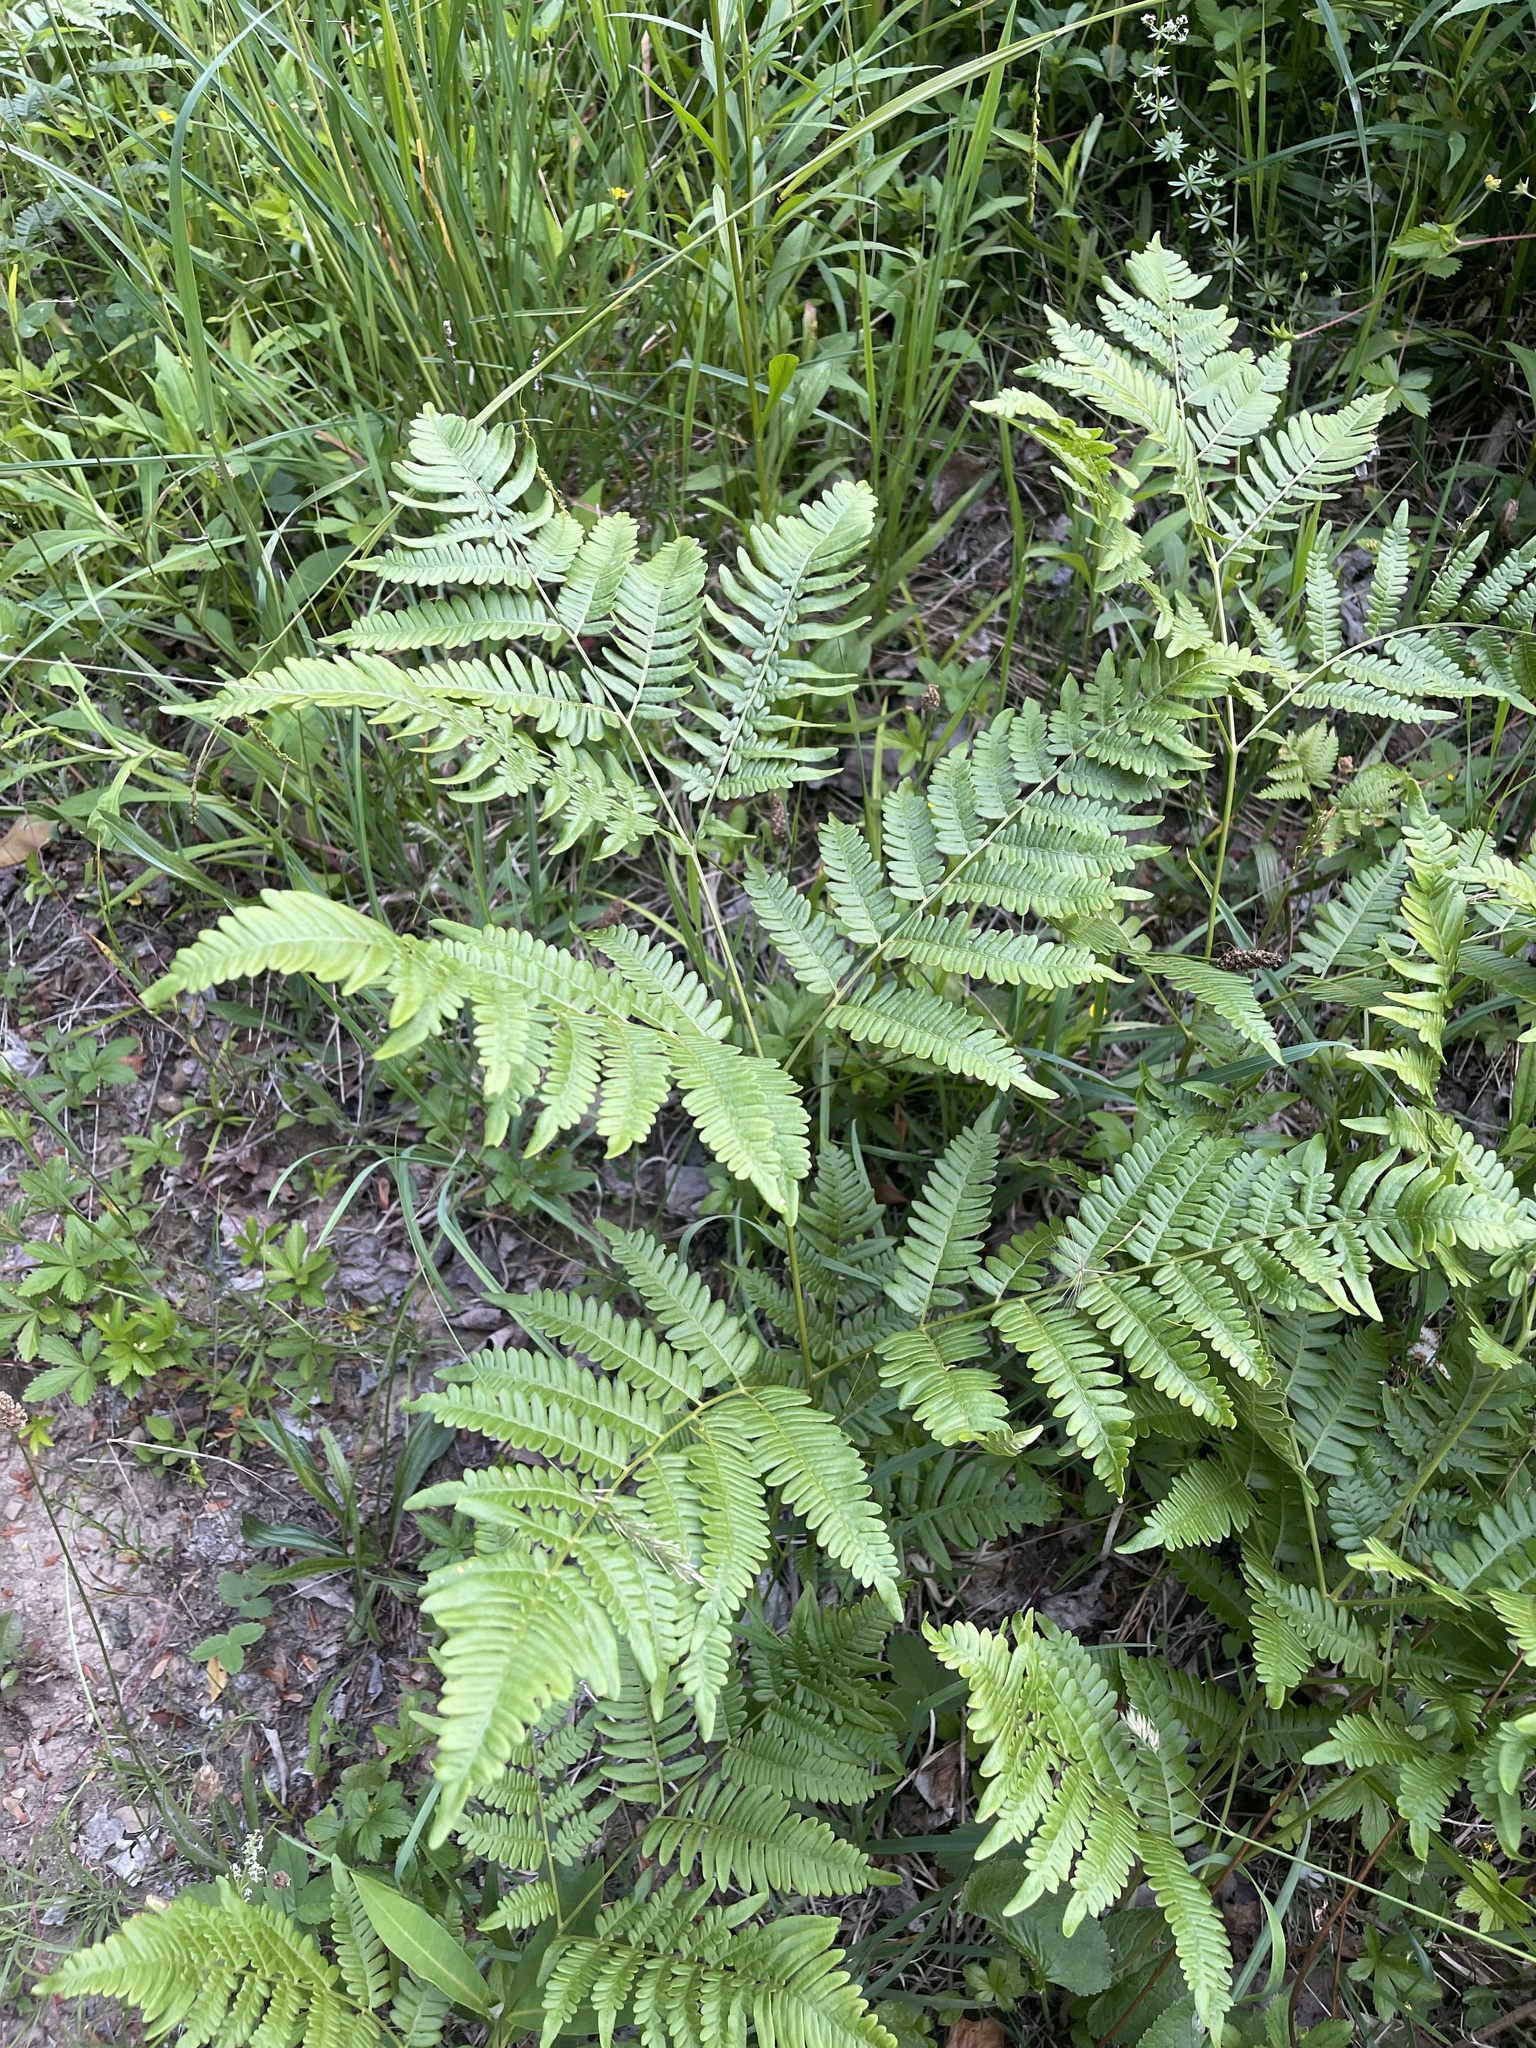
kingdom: Plantae
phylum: Tracheophyta
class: Polypodiopsida
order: Polypodiales
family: Dennstaedtiaceae
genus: Pteridium
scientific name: Pteridium aquilinum
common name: Bracken
